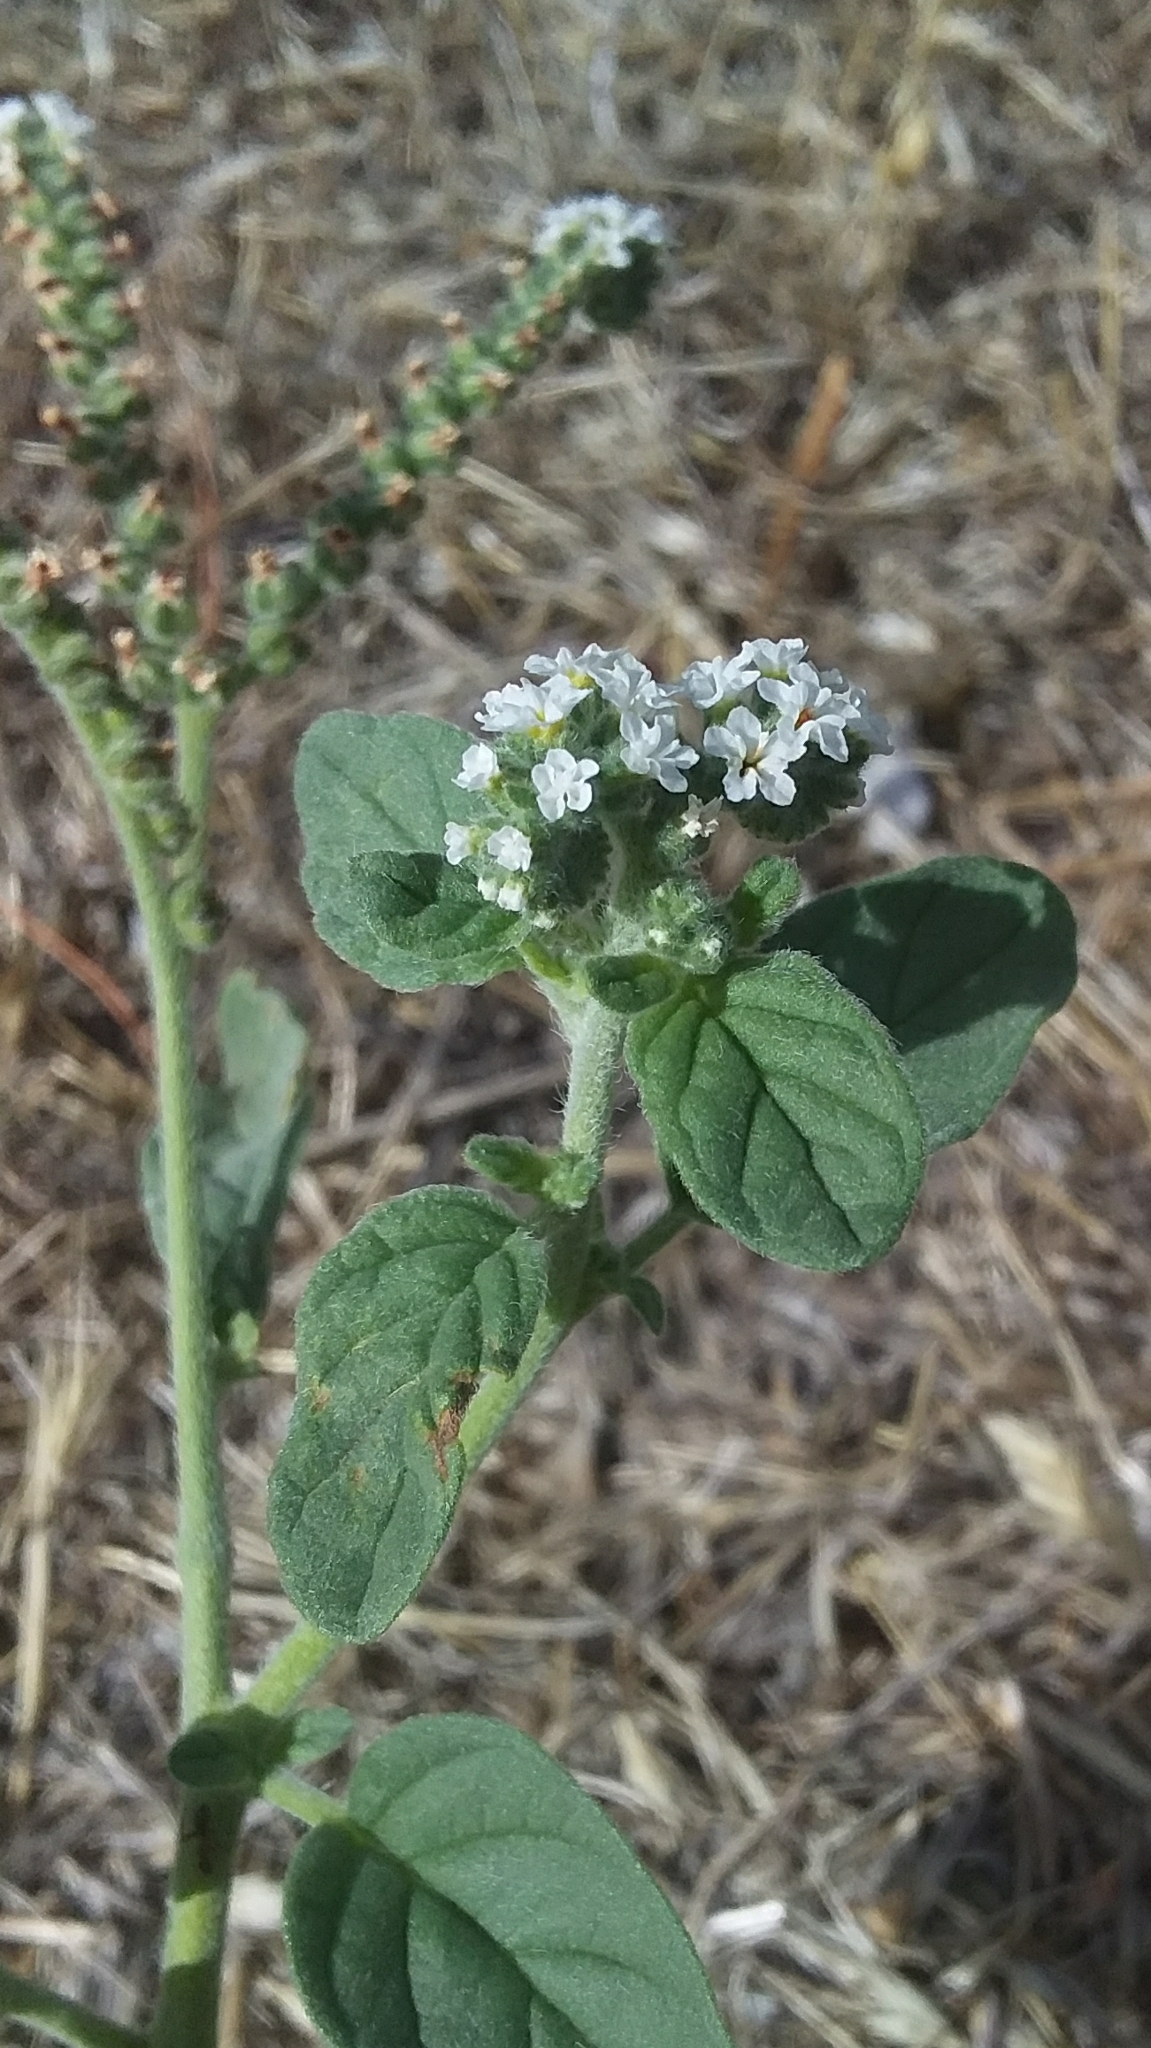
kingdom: Plantae
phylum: Tracheophyta
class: Magnoliopsida
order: Boraginales
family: Heliotropiaceae
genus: Heliotropium
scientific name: Heliotropium europaeum
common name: European heliotrope
